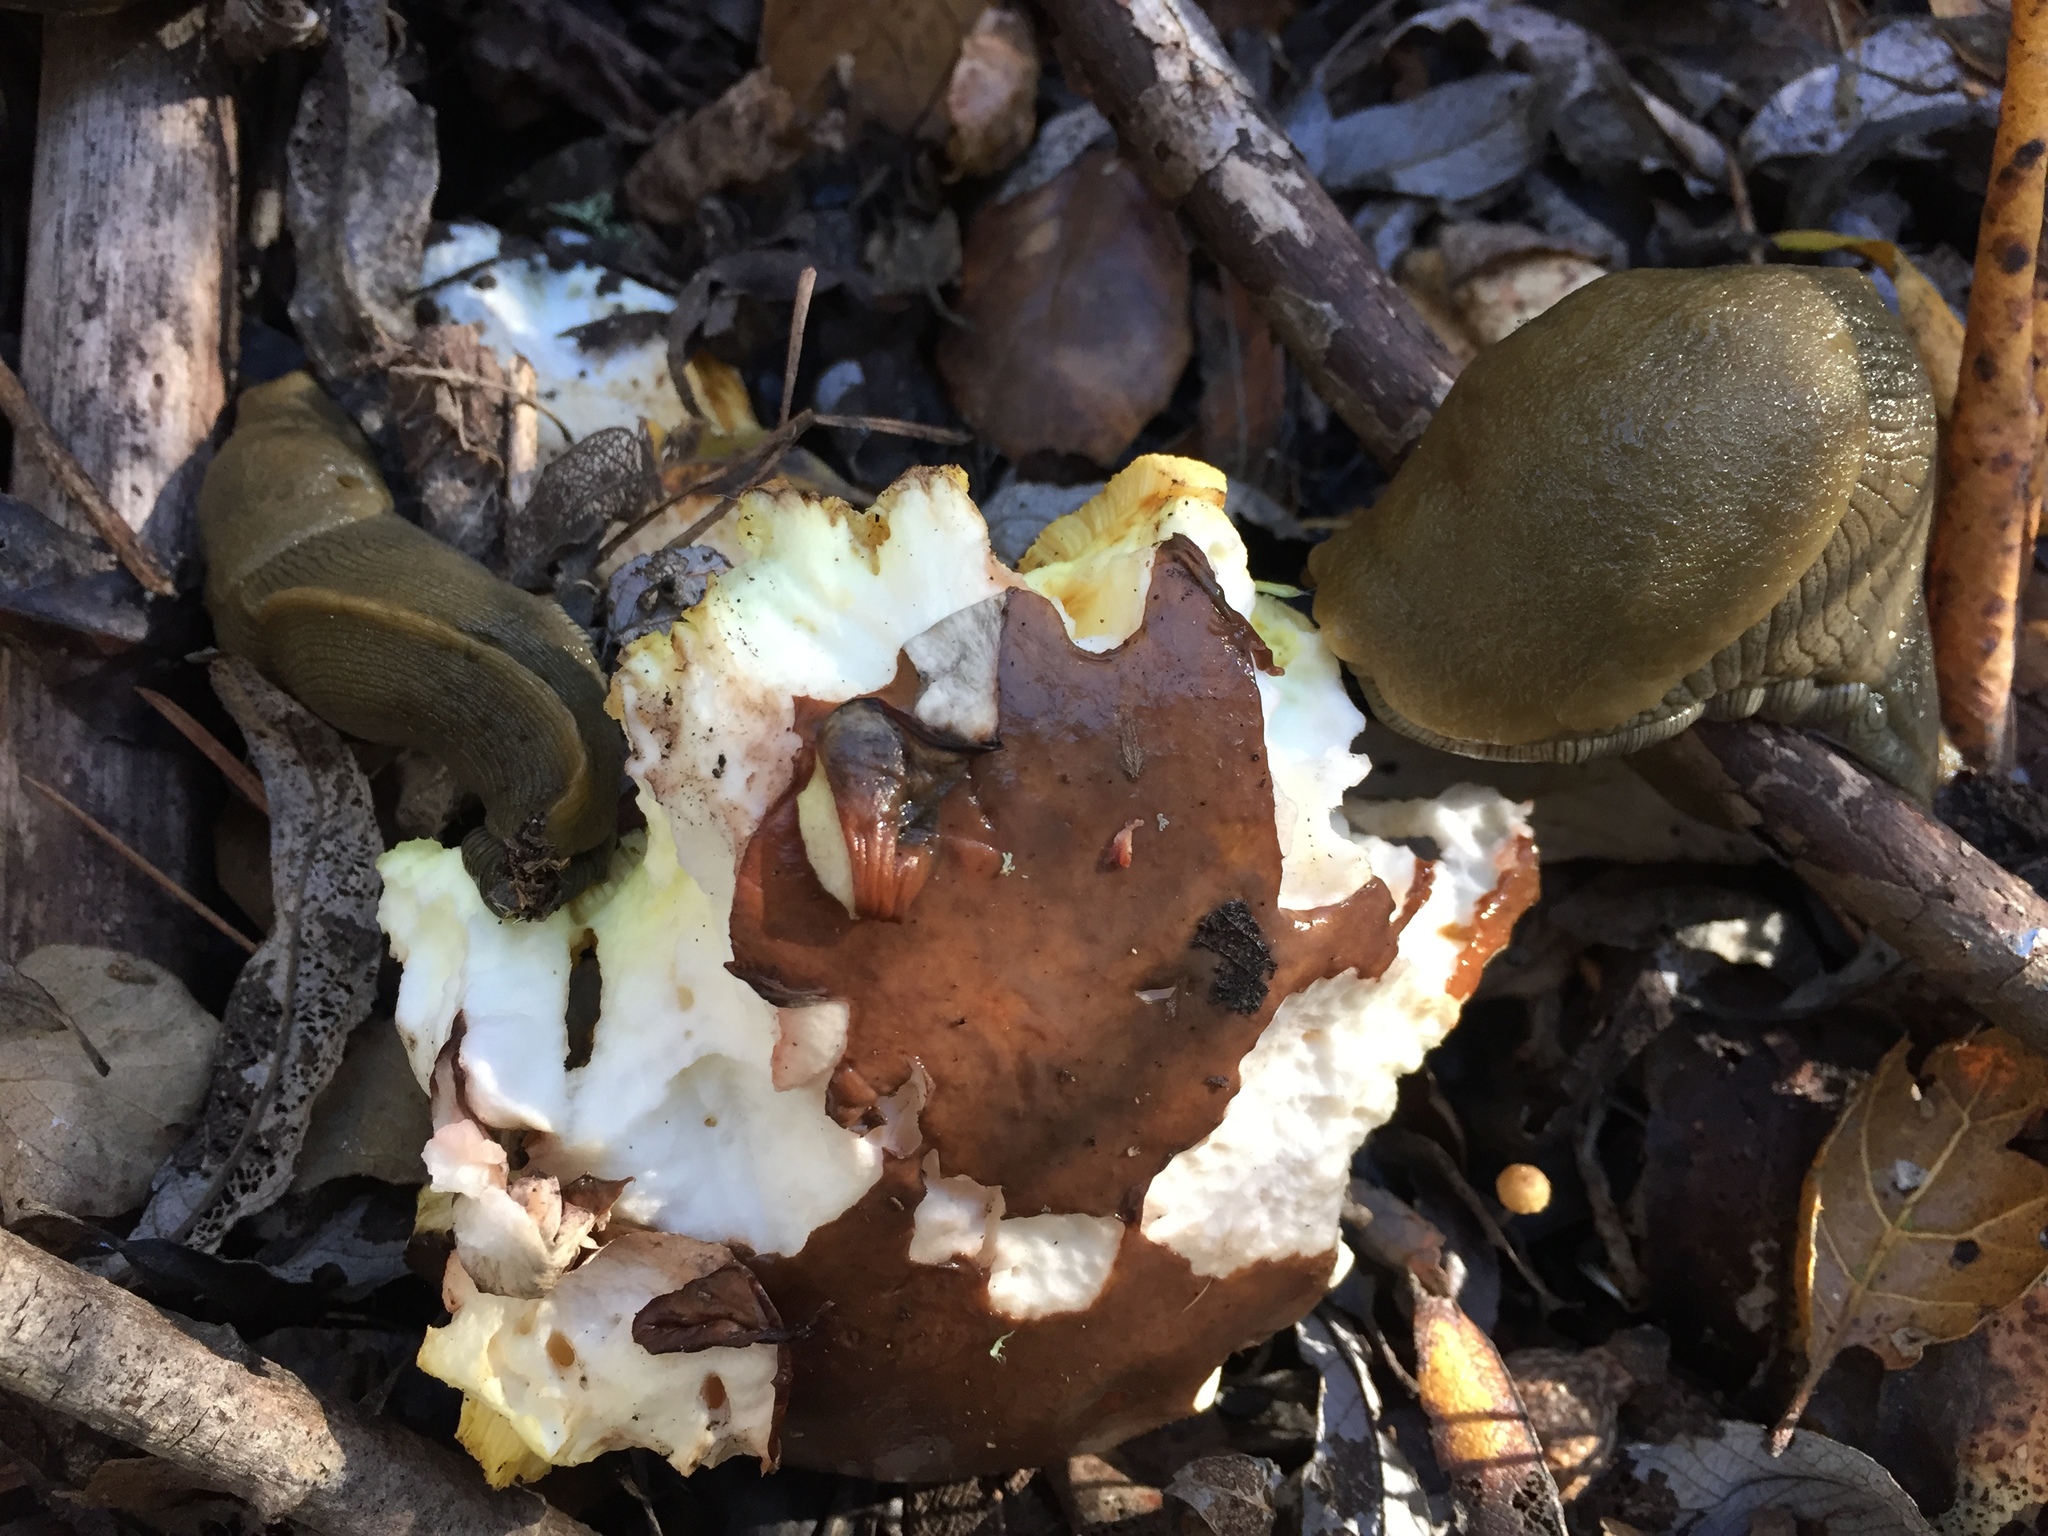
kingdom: Animalia
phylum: Mollusca
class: Gastropoda
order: Stylommatophora
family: Ariolimacidae
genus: Ariolimax
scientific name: Ariolimax buttoni
